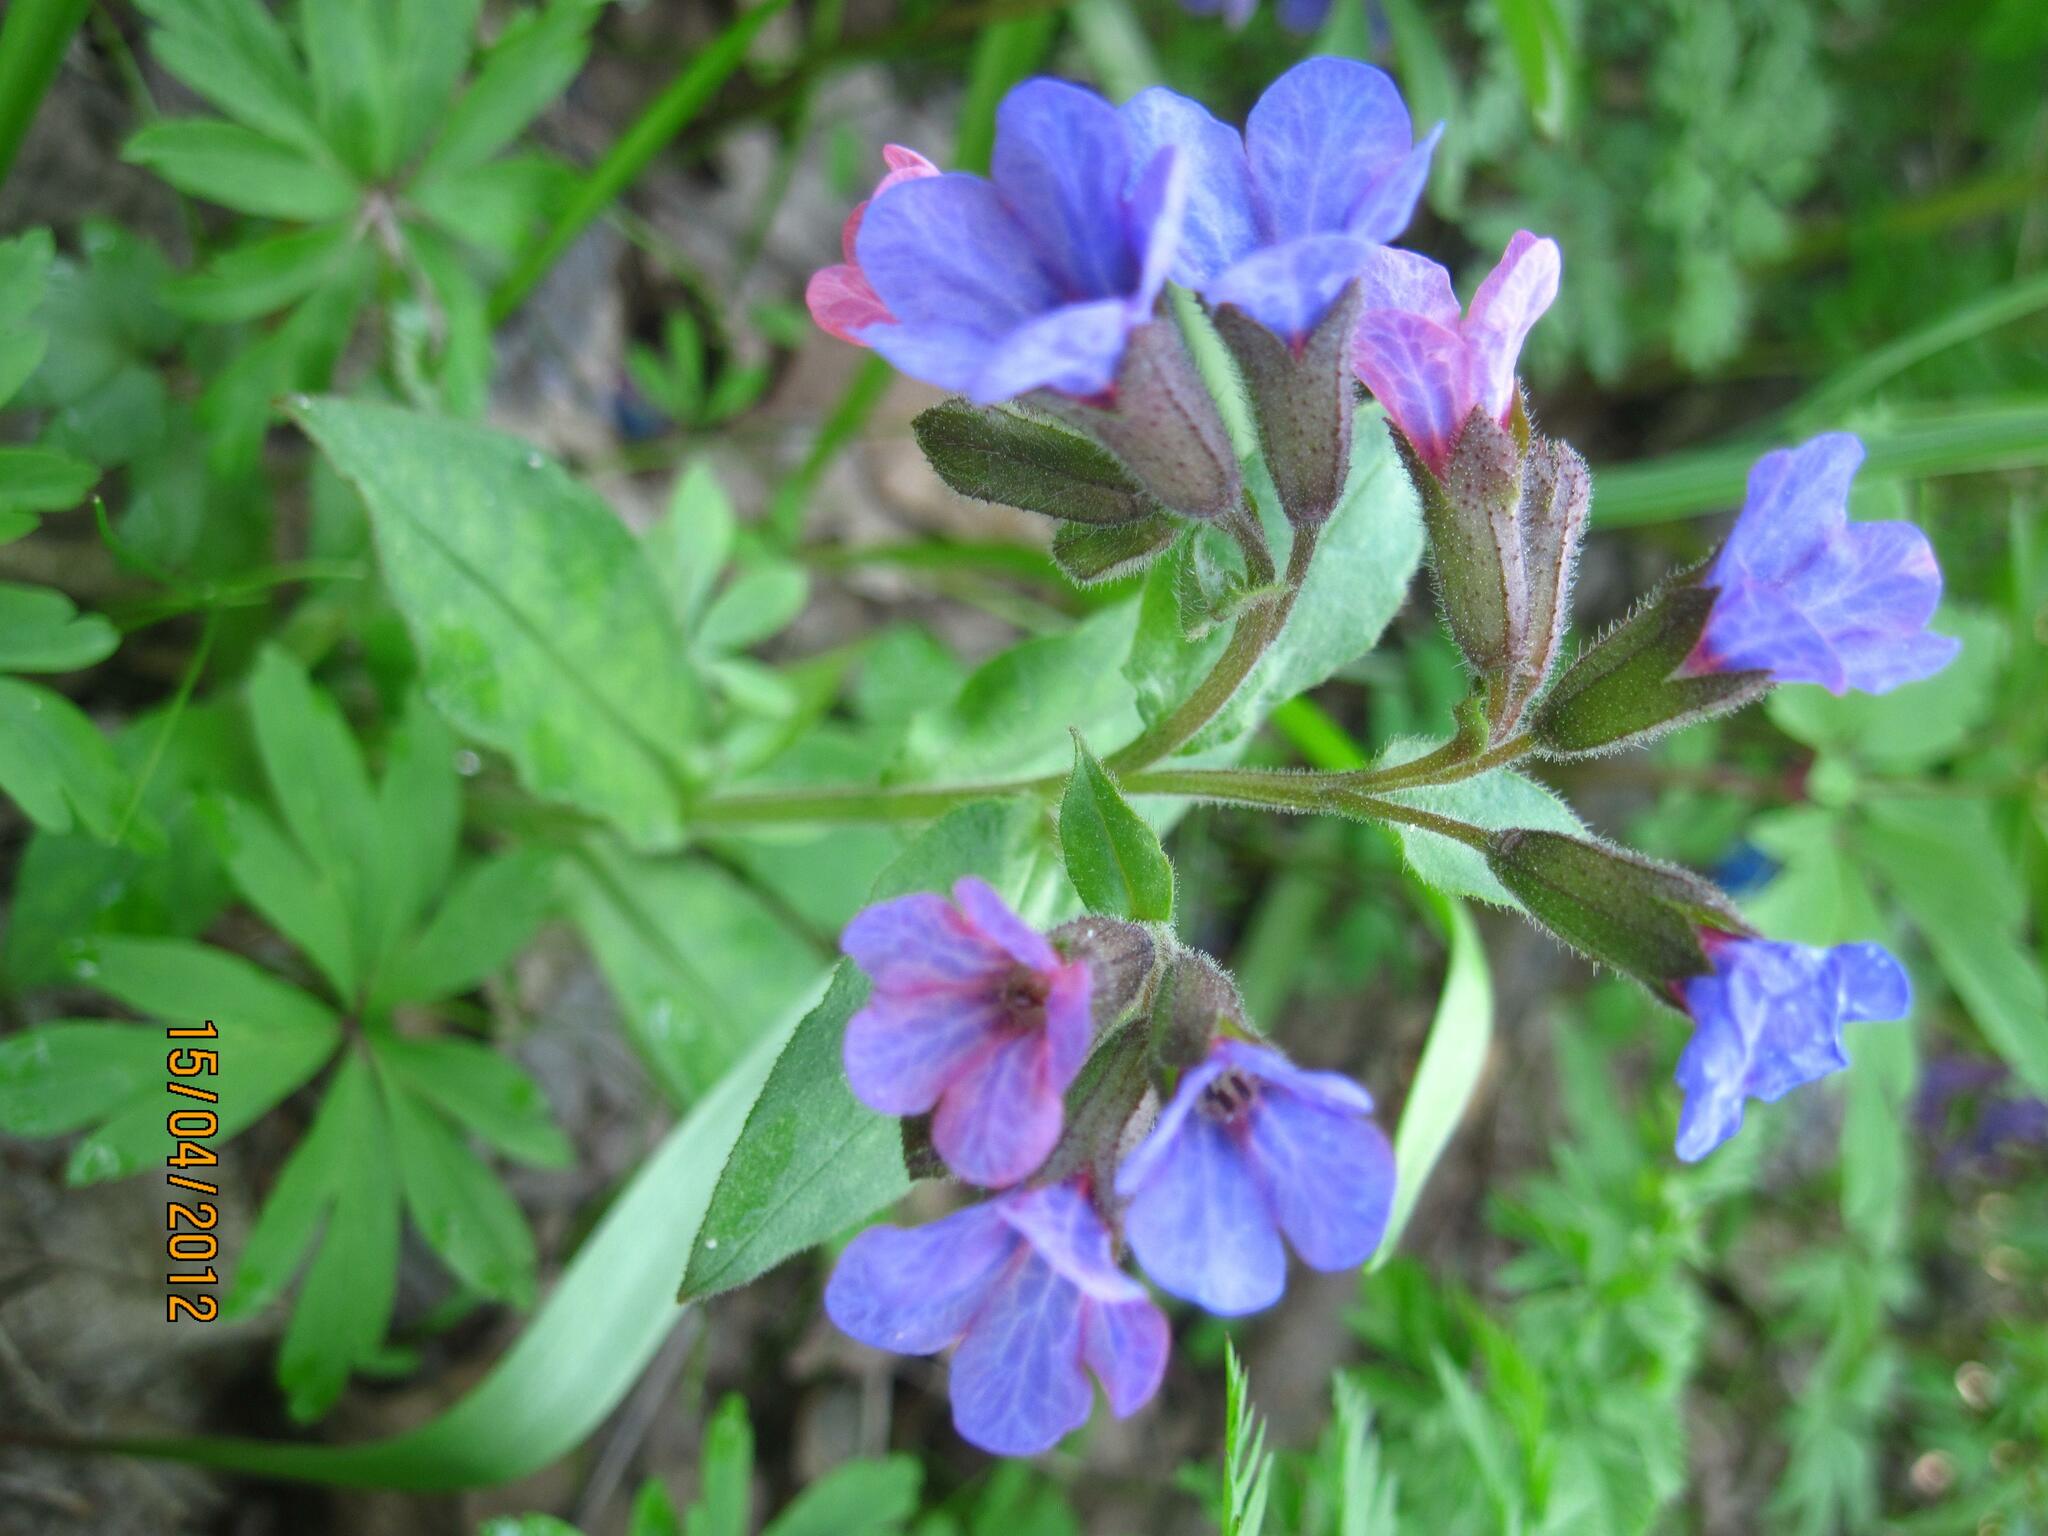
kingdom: Plantae
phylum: Tracheophyta
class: Magnoliopsida
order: Boraginales
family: Boraginaceae
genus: Pulmonaria
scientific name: Pulmonaria obscura
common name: Suffolk lungwort
